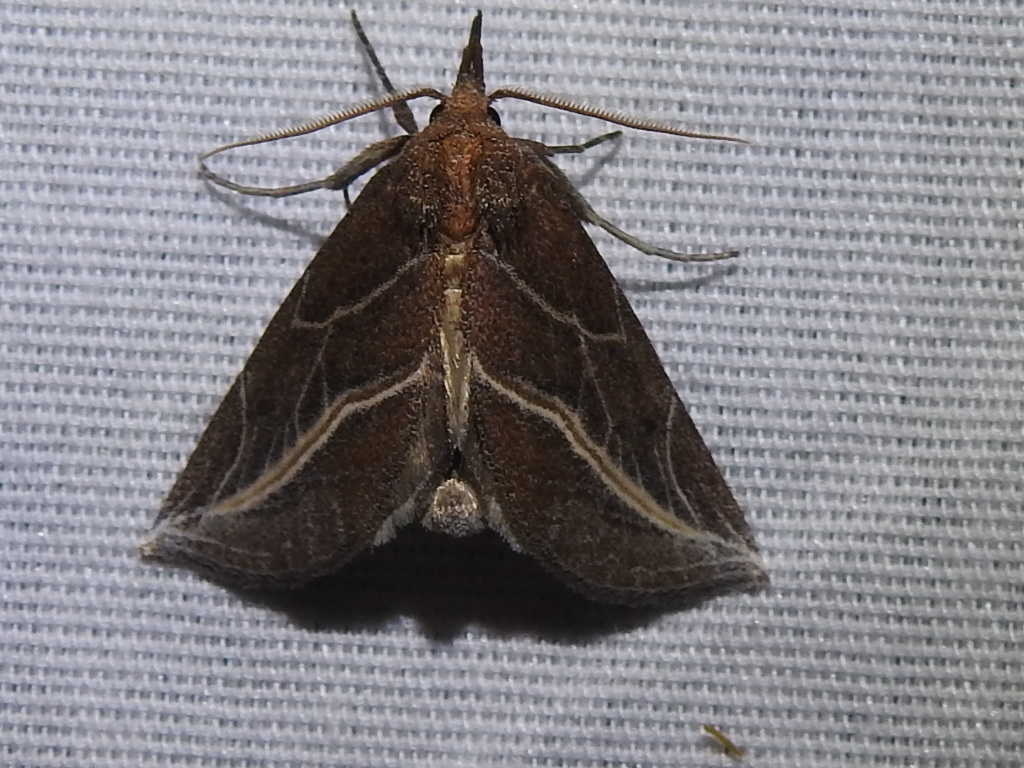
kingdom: Animalia
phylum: Arthropoda
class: Insecta
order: Lepidoptera
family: Erebidae
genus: Phyprosopus
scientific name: Phyprosopus callitrichoides
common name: Curved-lined owlet
